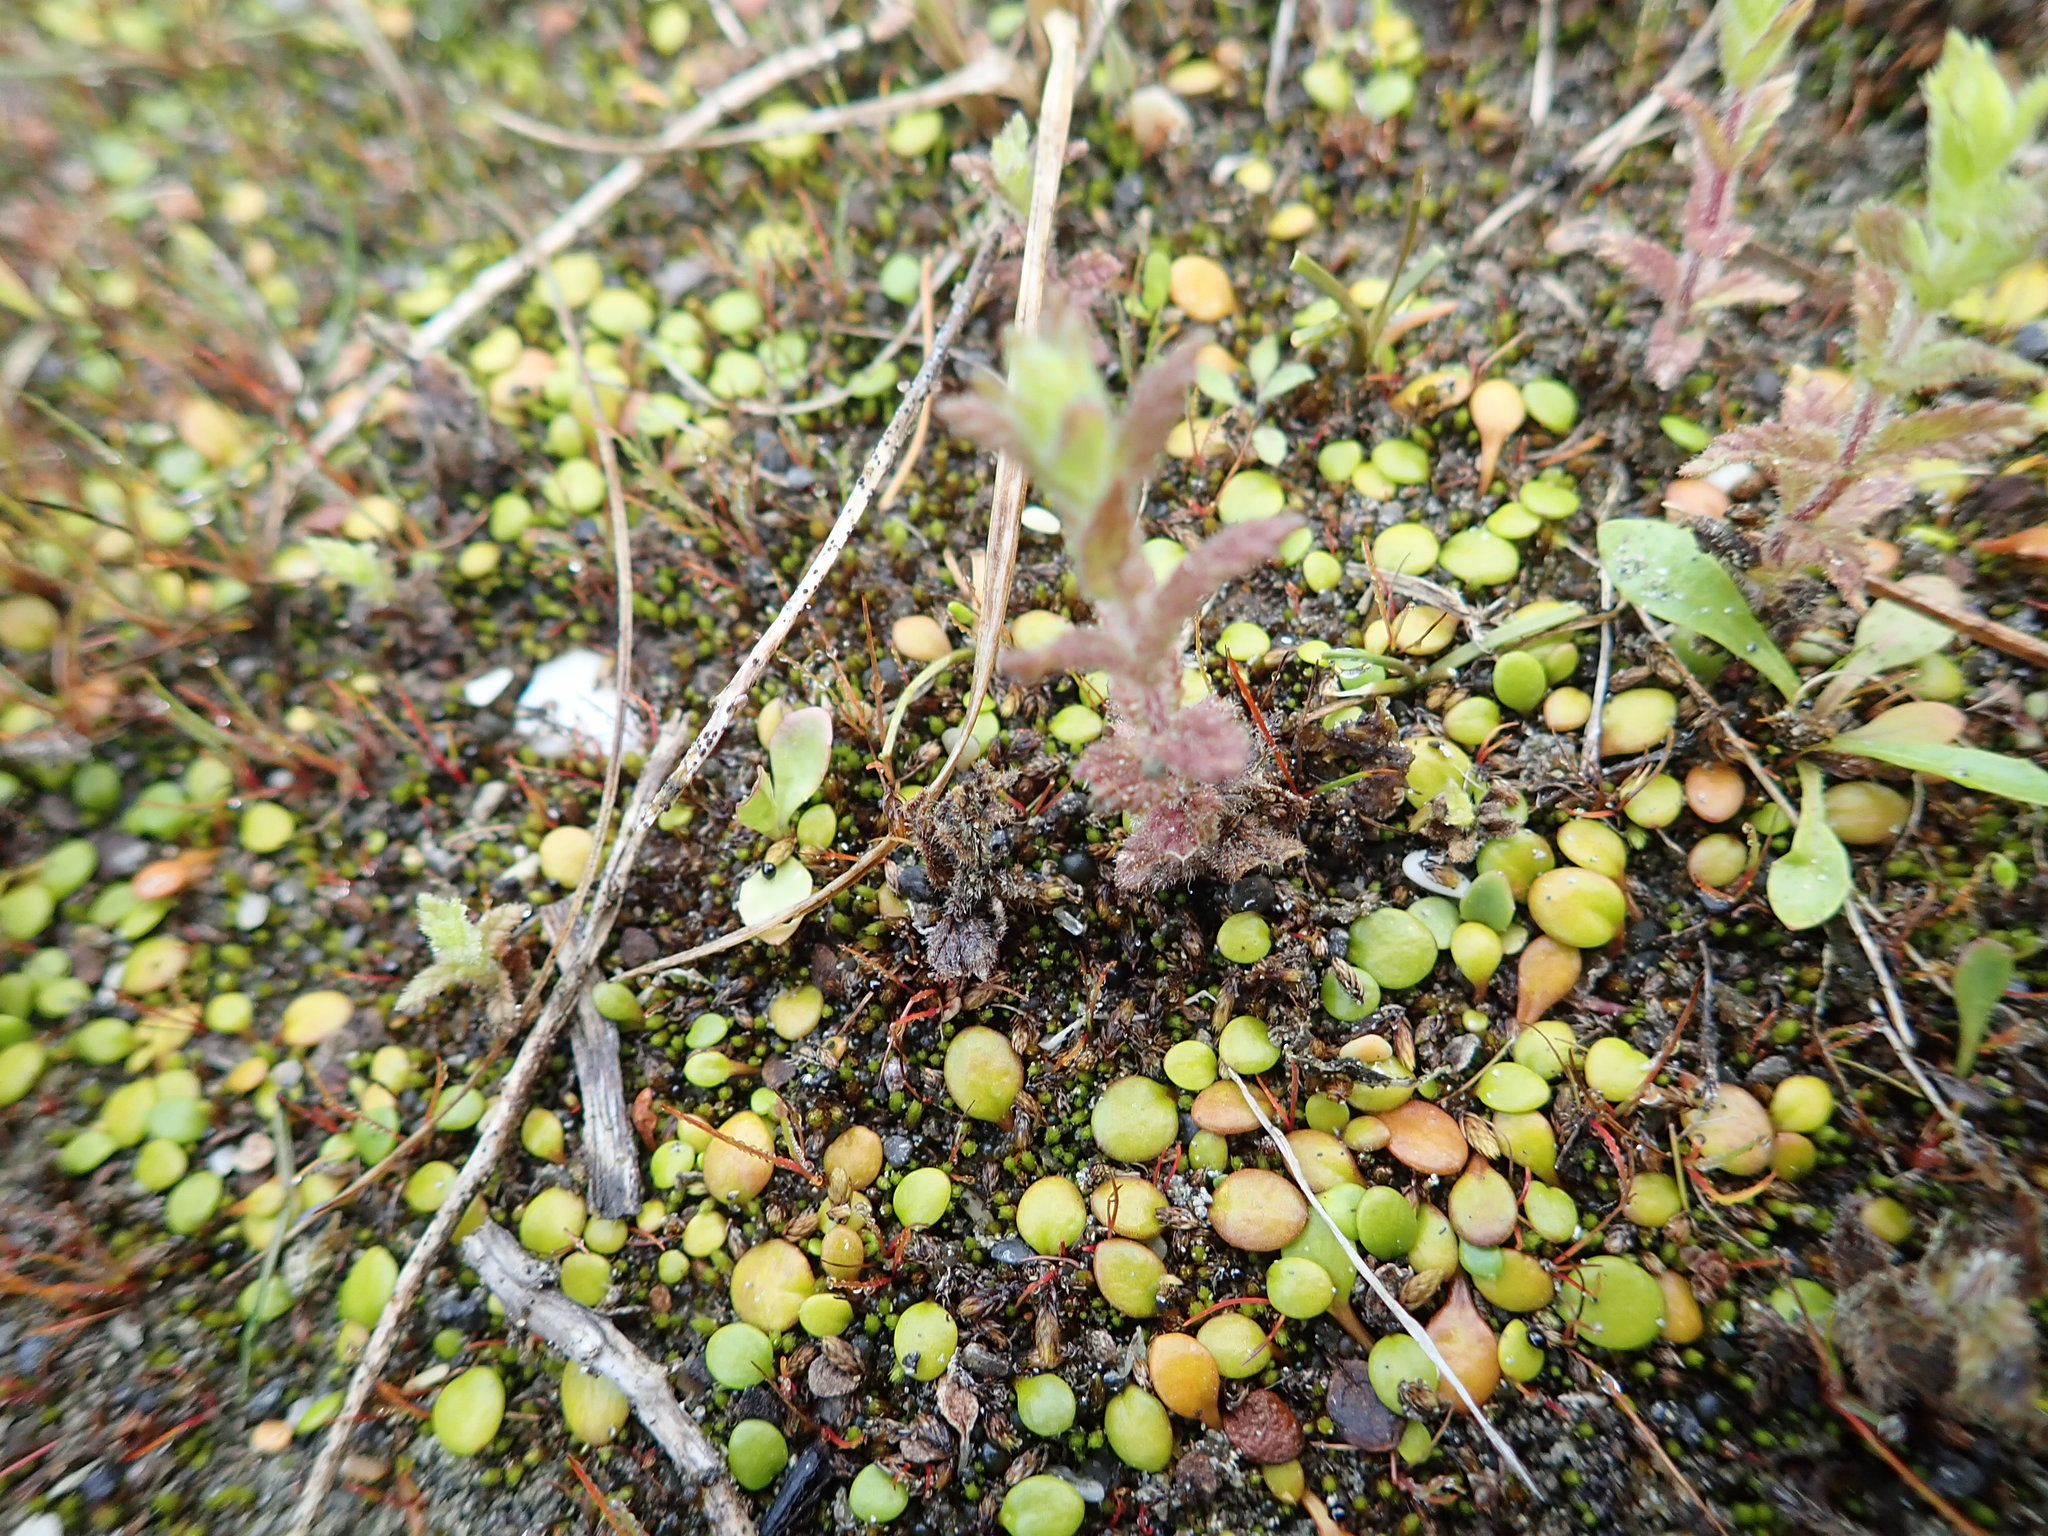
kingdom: Plantae
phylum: Tracheophyta
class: Magnoliopsida
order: Asterales
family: Goodeniaceae
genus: Goodenia
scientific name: Goodenia heenanii
